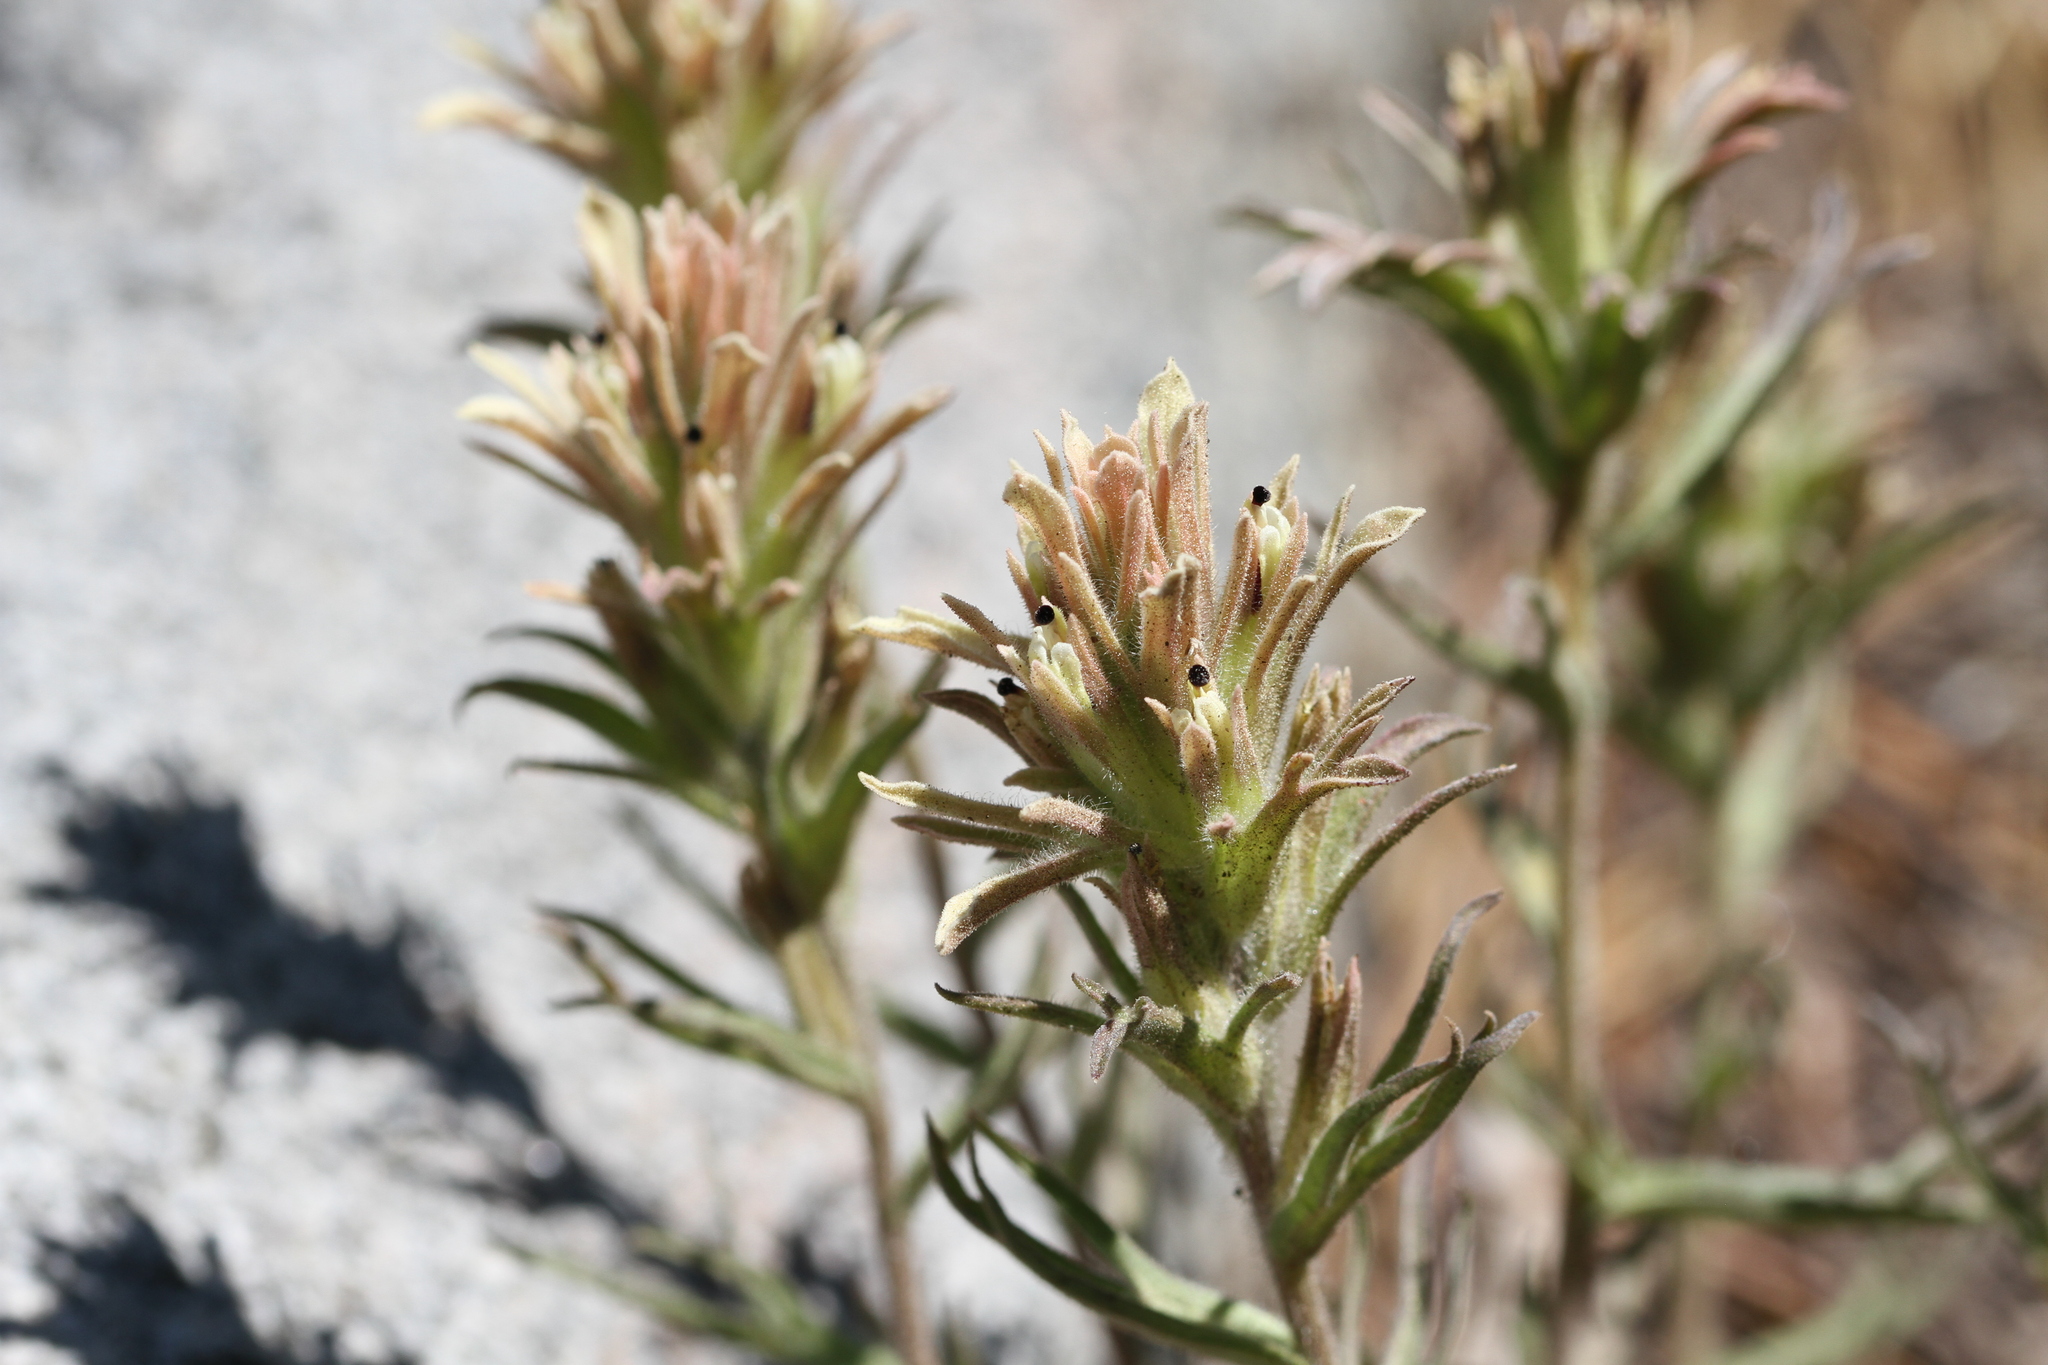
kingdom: Plantae
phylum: Tracheophyta
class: Magnoliopsida
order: Lamiales
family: Orobanchaceae
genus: Castilleja
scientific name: Castilleja nana
